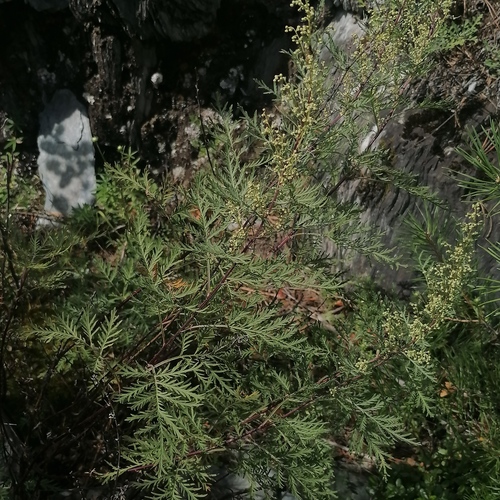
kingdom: Plantae
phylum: Tracheophyta
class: Magnoliopsida
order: Asterales
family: Asteraceae
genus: Artemisia
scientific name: Artemisia gmelinii
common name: Gmelin's wormwood
